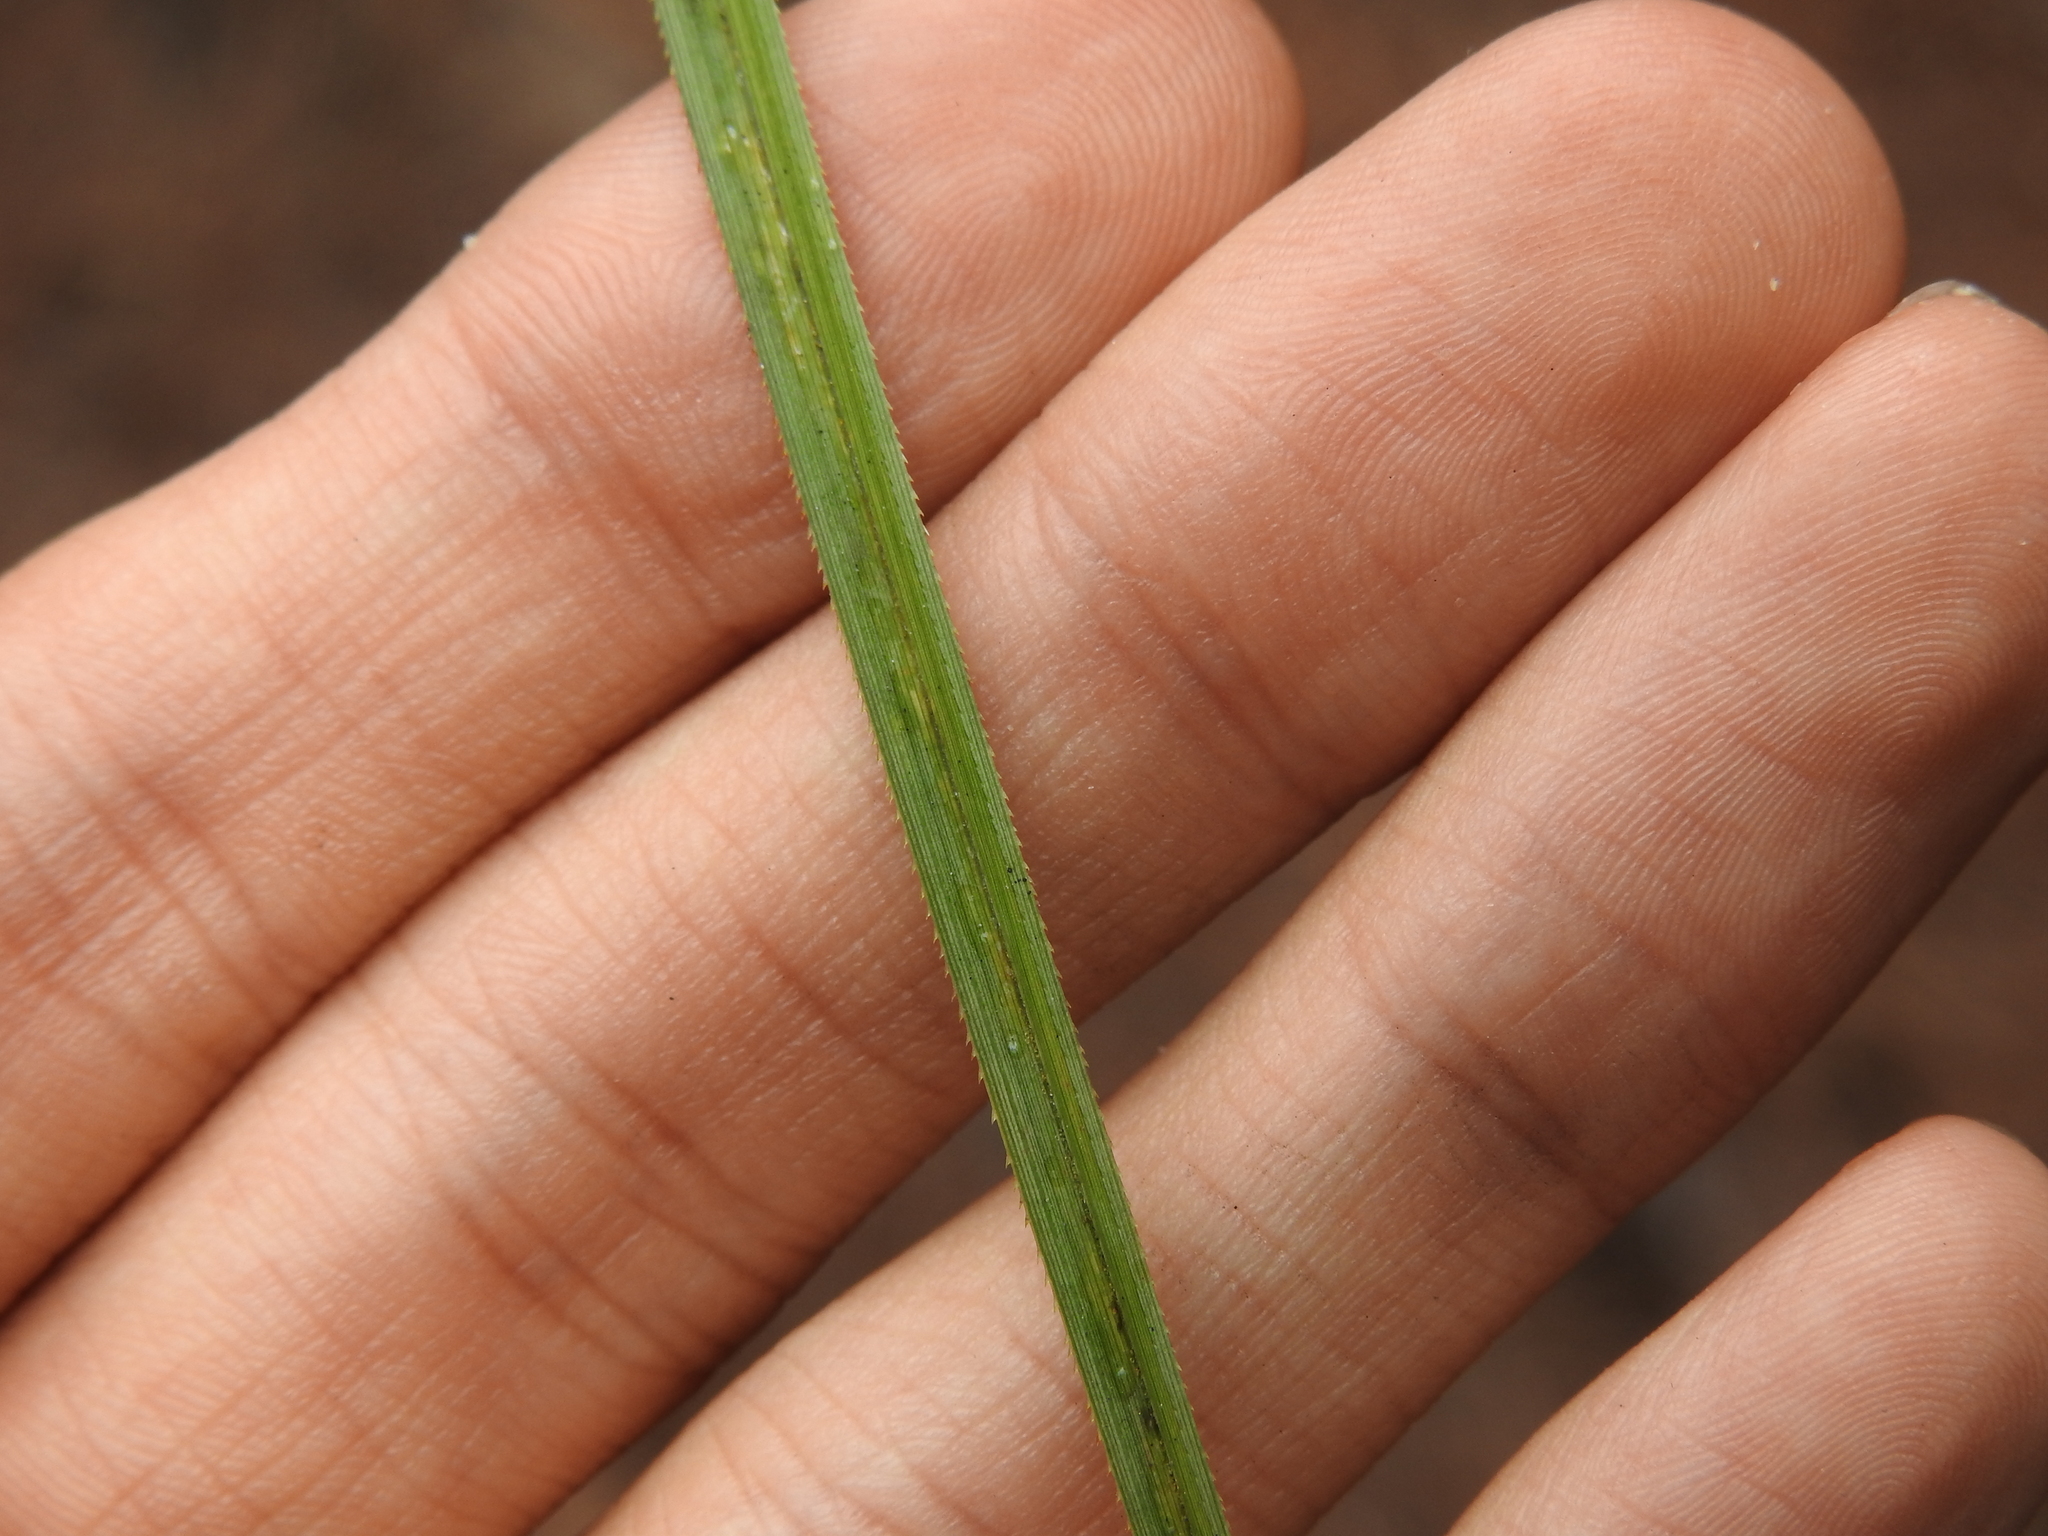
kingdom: Plantae
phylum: Tracheophyta
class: Liliopsida
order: Poales
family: Cyperaceae
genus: Cladium
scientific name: Cladium mariscus
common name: Great fen-sedge
